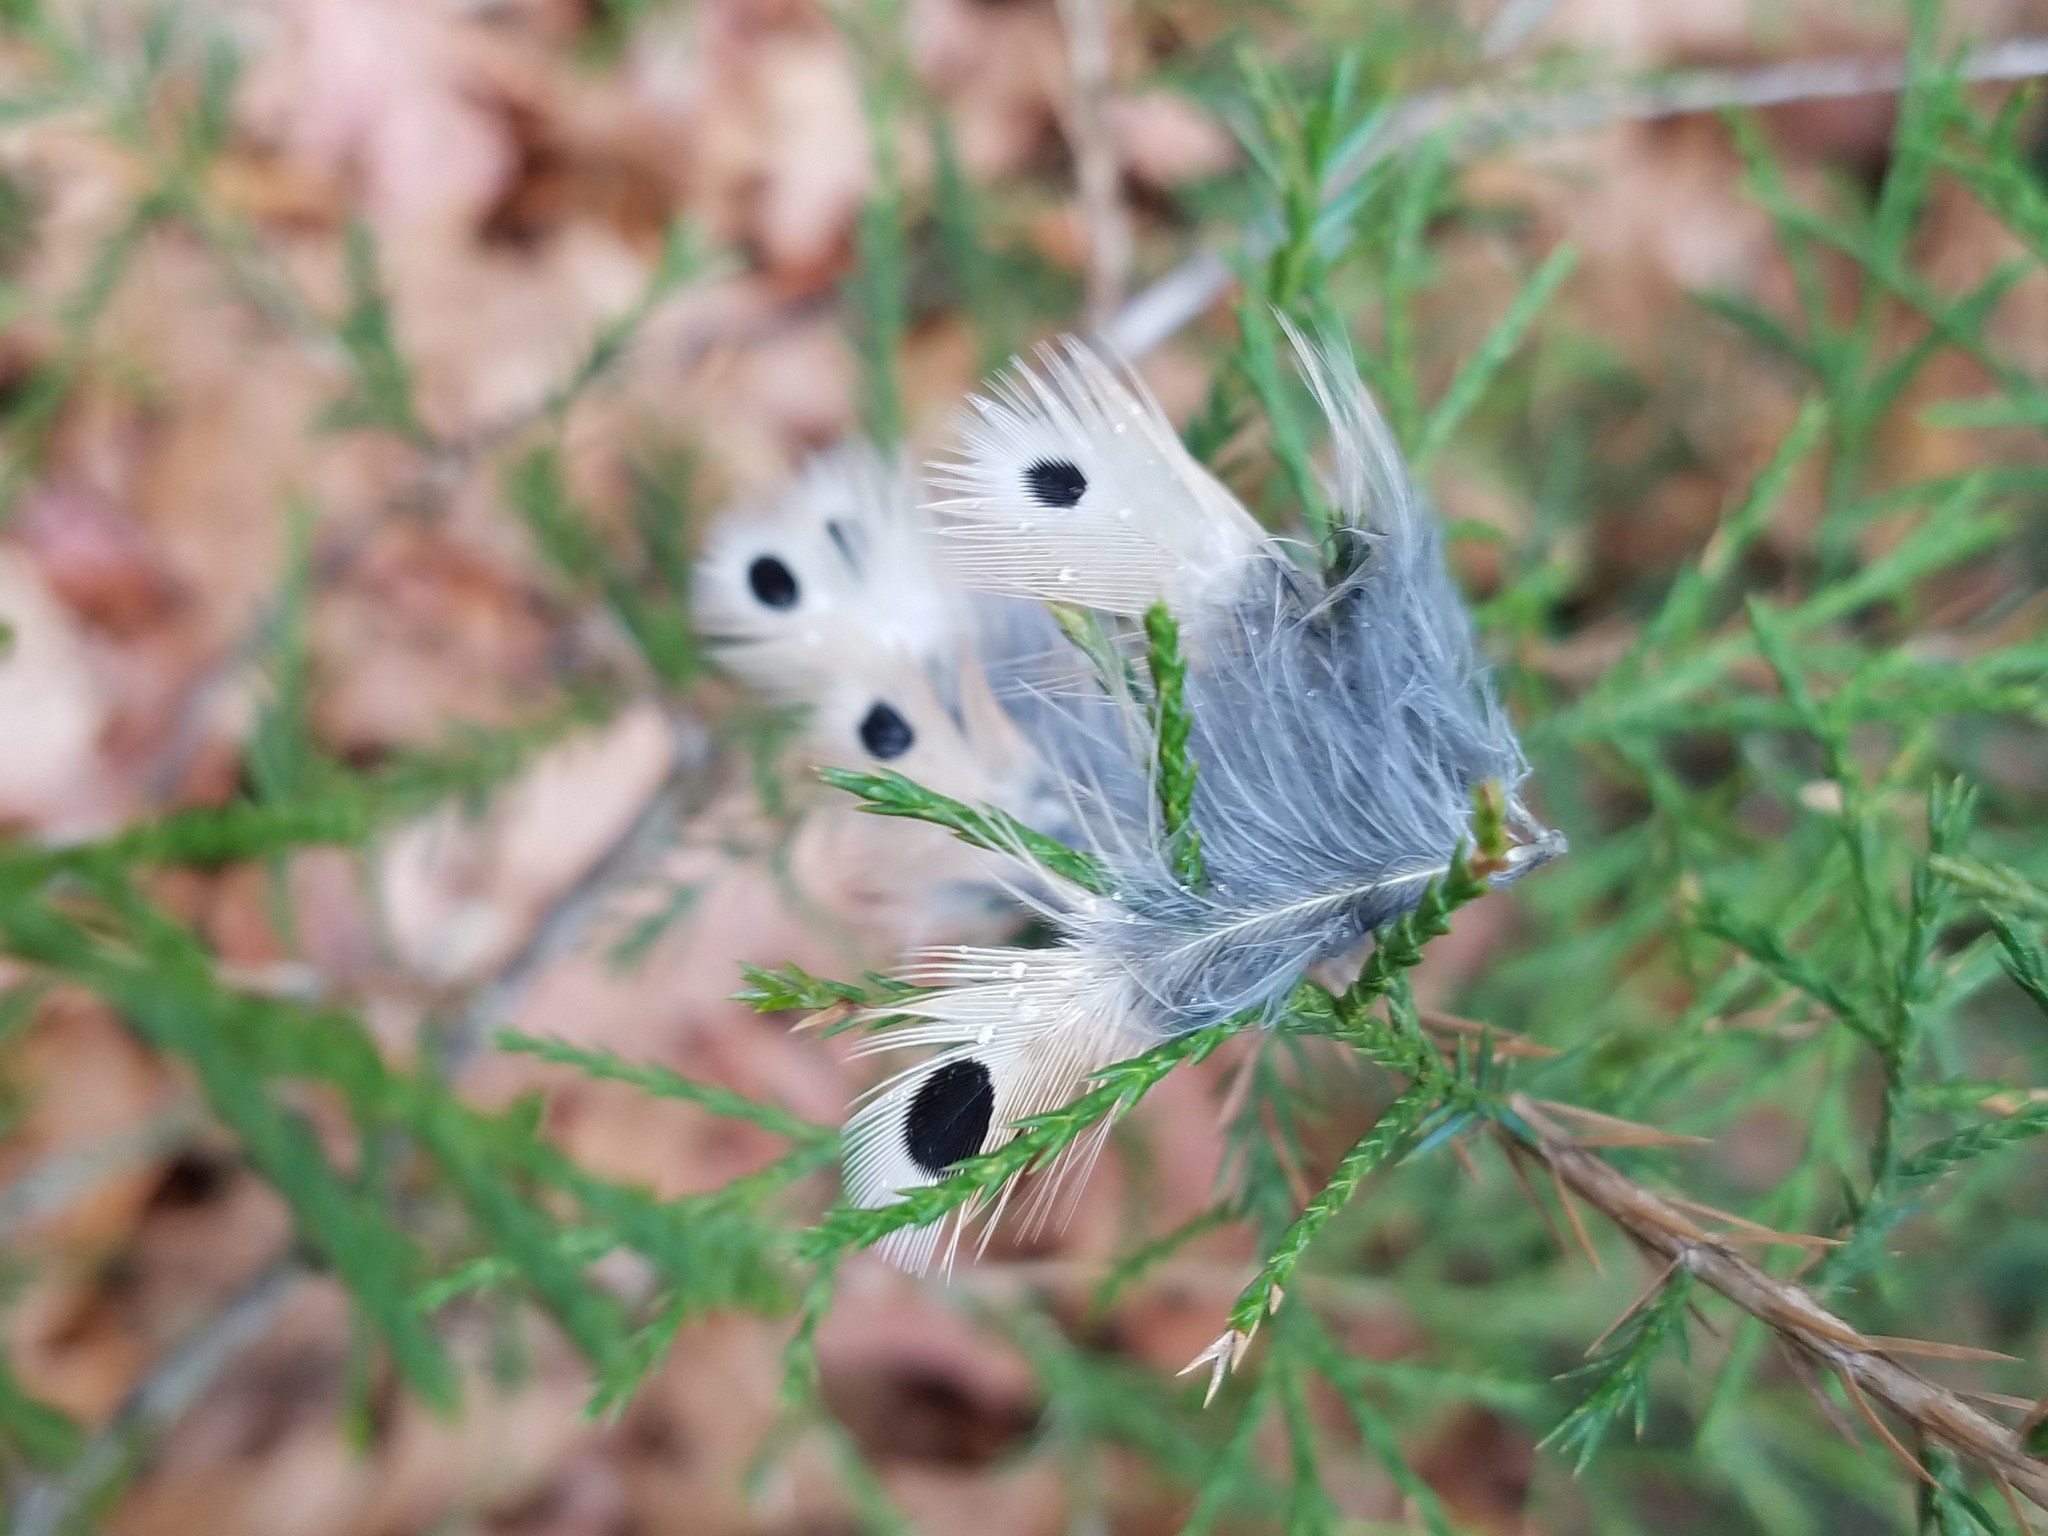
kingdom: Animalia
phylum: Chordata
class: Aves
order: Piciformes
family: Picidae
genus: Colaptes
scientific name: Colaptes auratus
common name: Northern flicker
